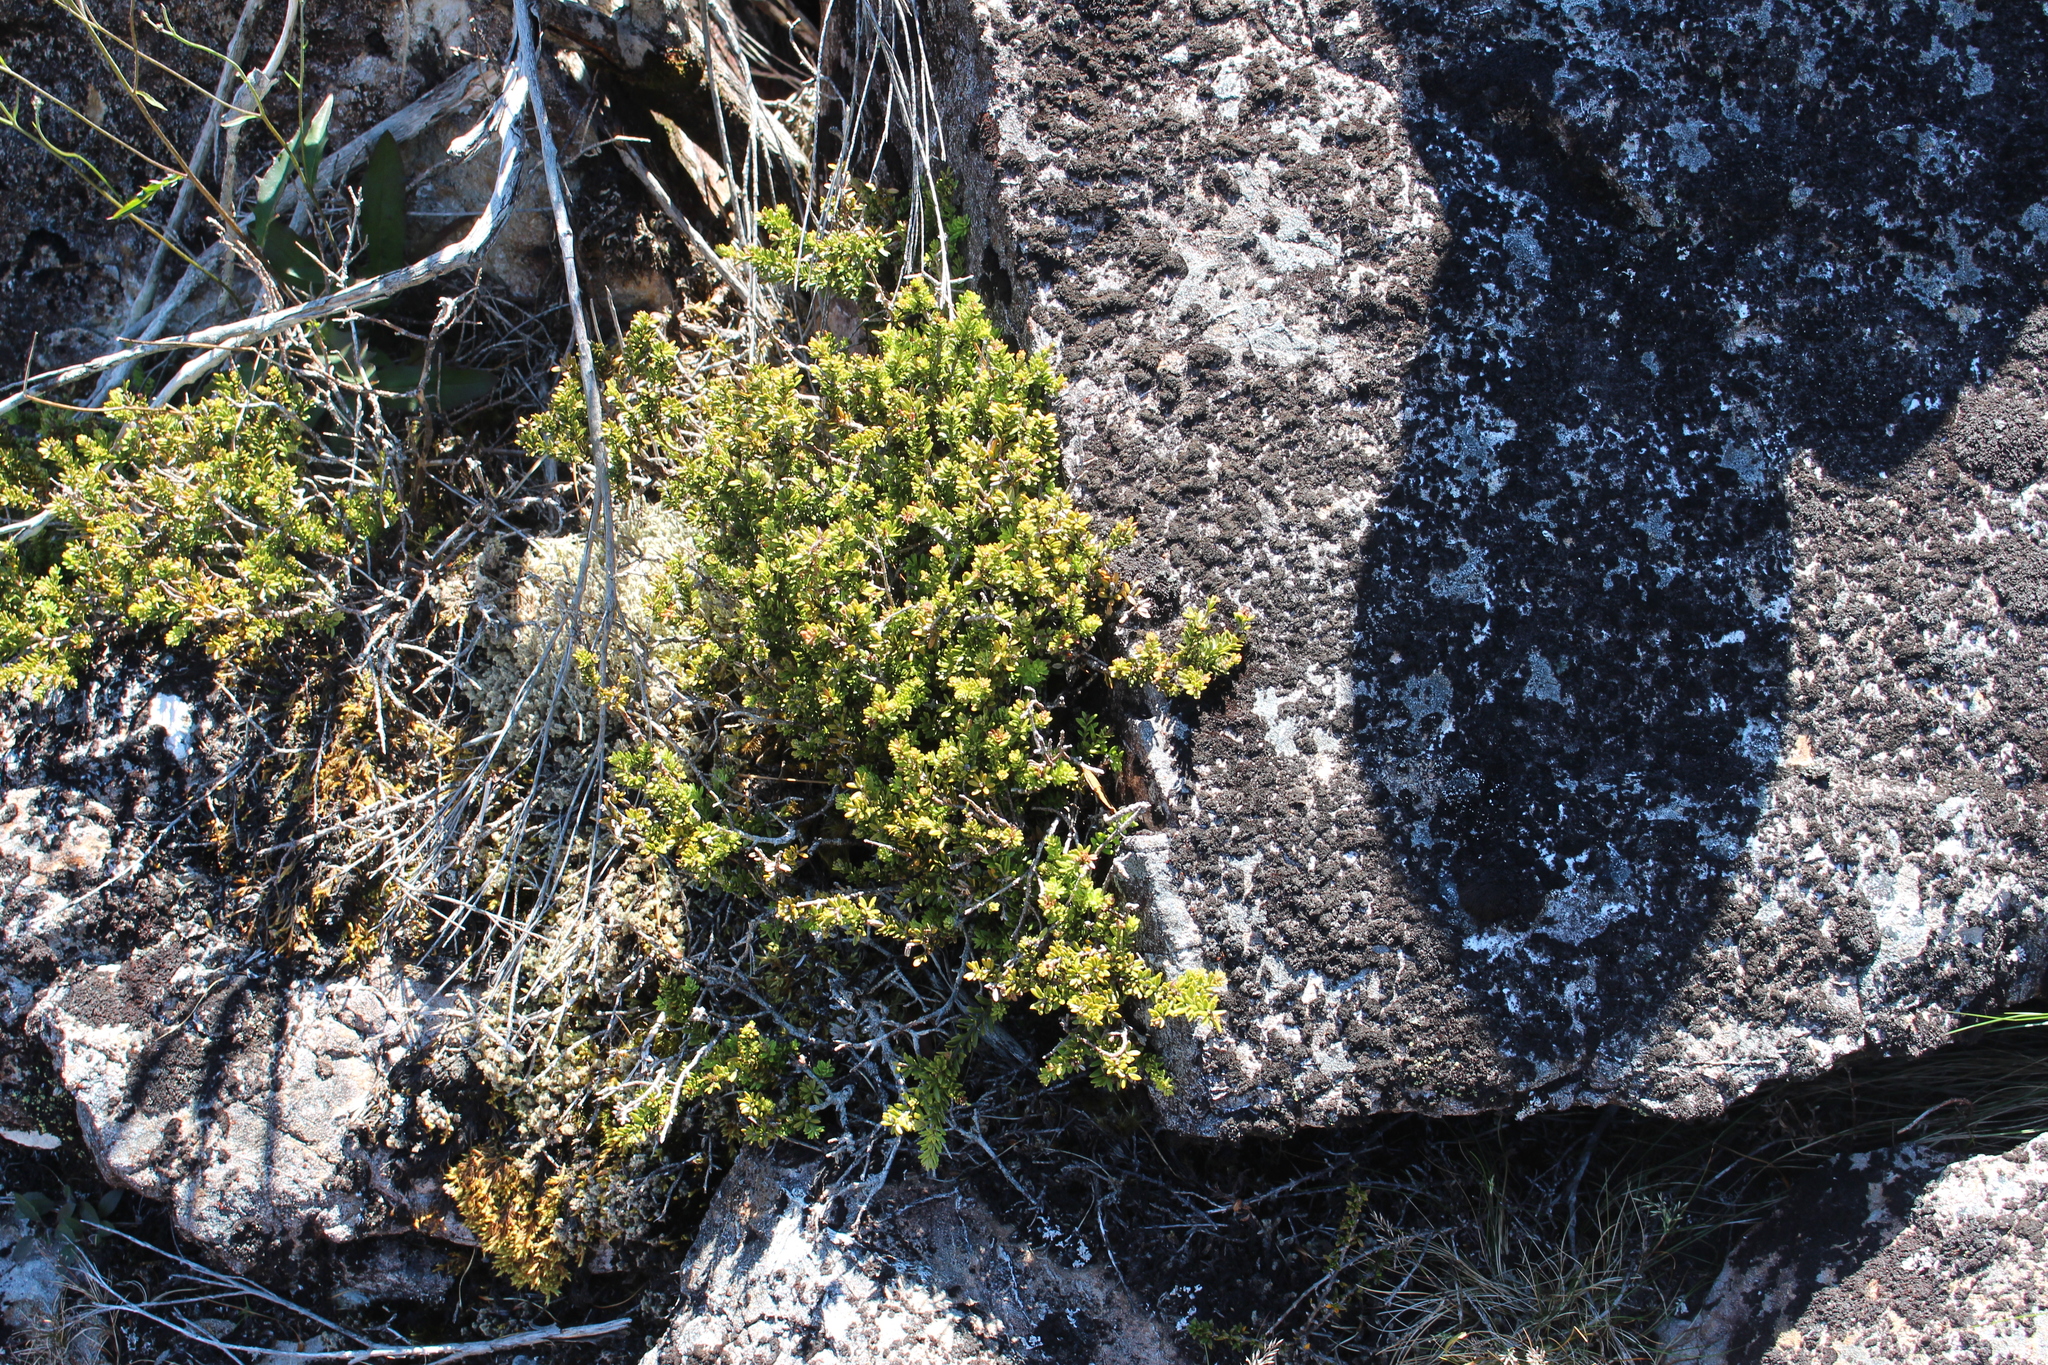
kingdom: Plantae
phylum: Tracheophyta
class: Pinopsida
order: Pinales
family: Podocarpaceae
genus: Podocarpus
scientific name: Podocarpus nivalis
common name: Alpine totara
